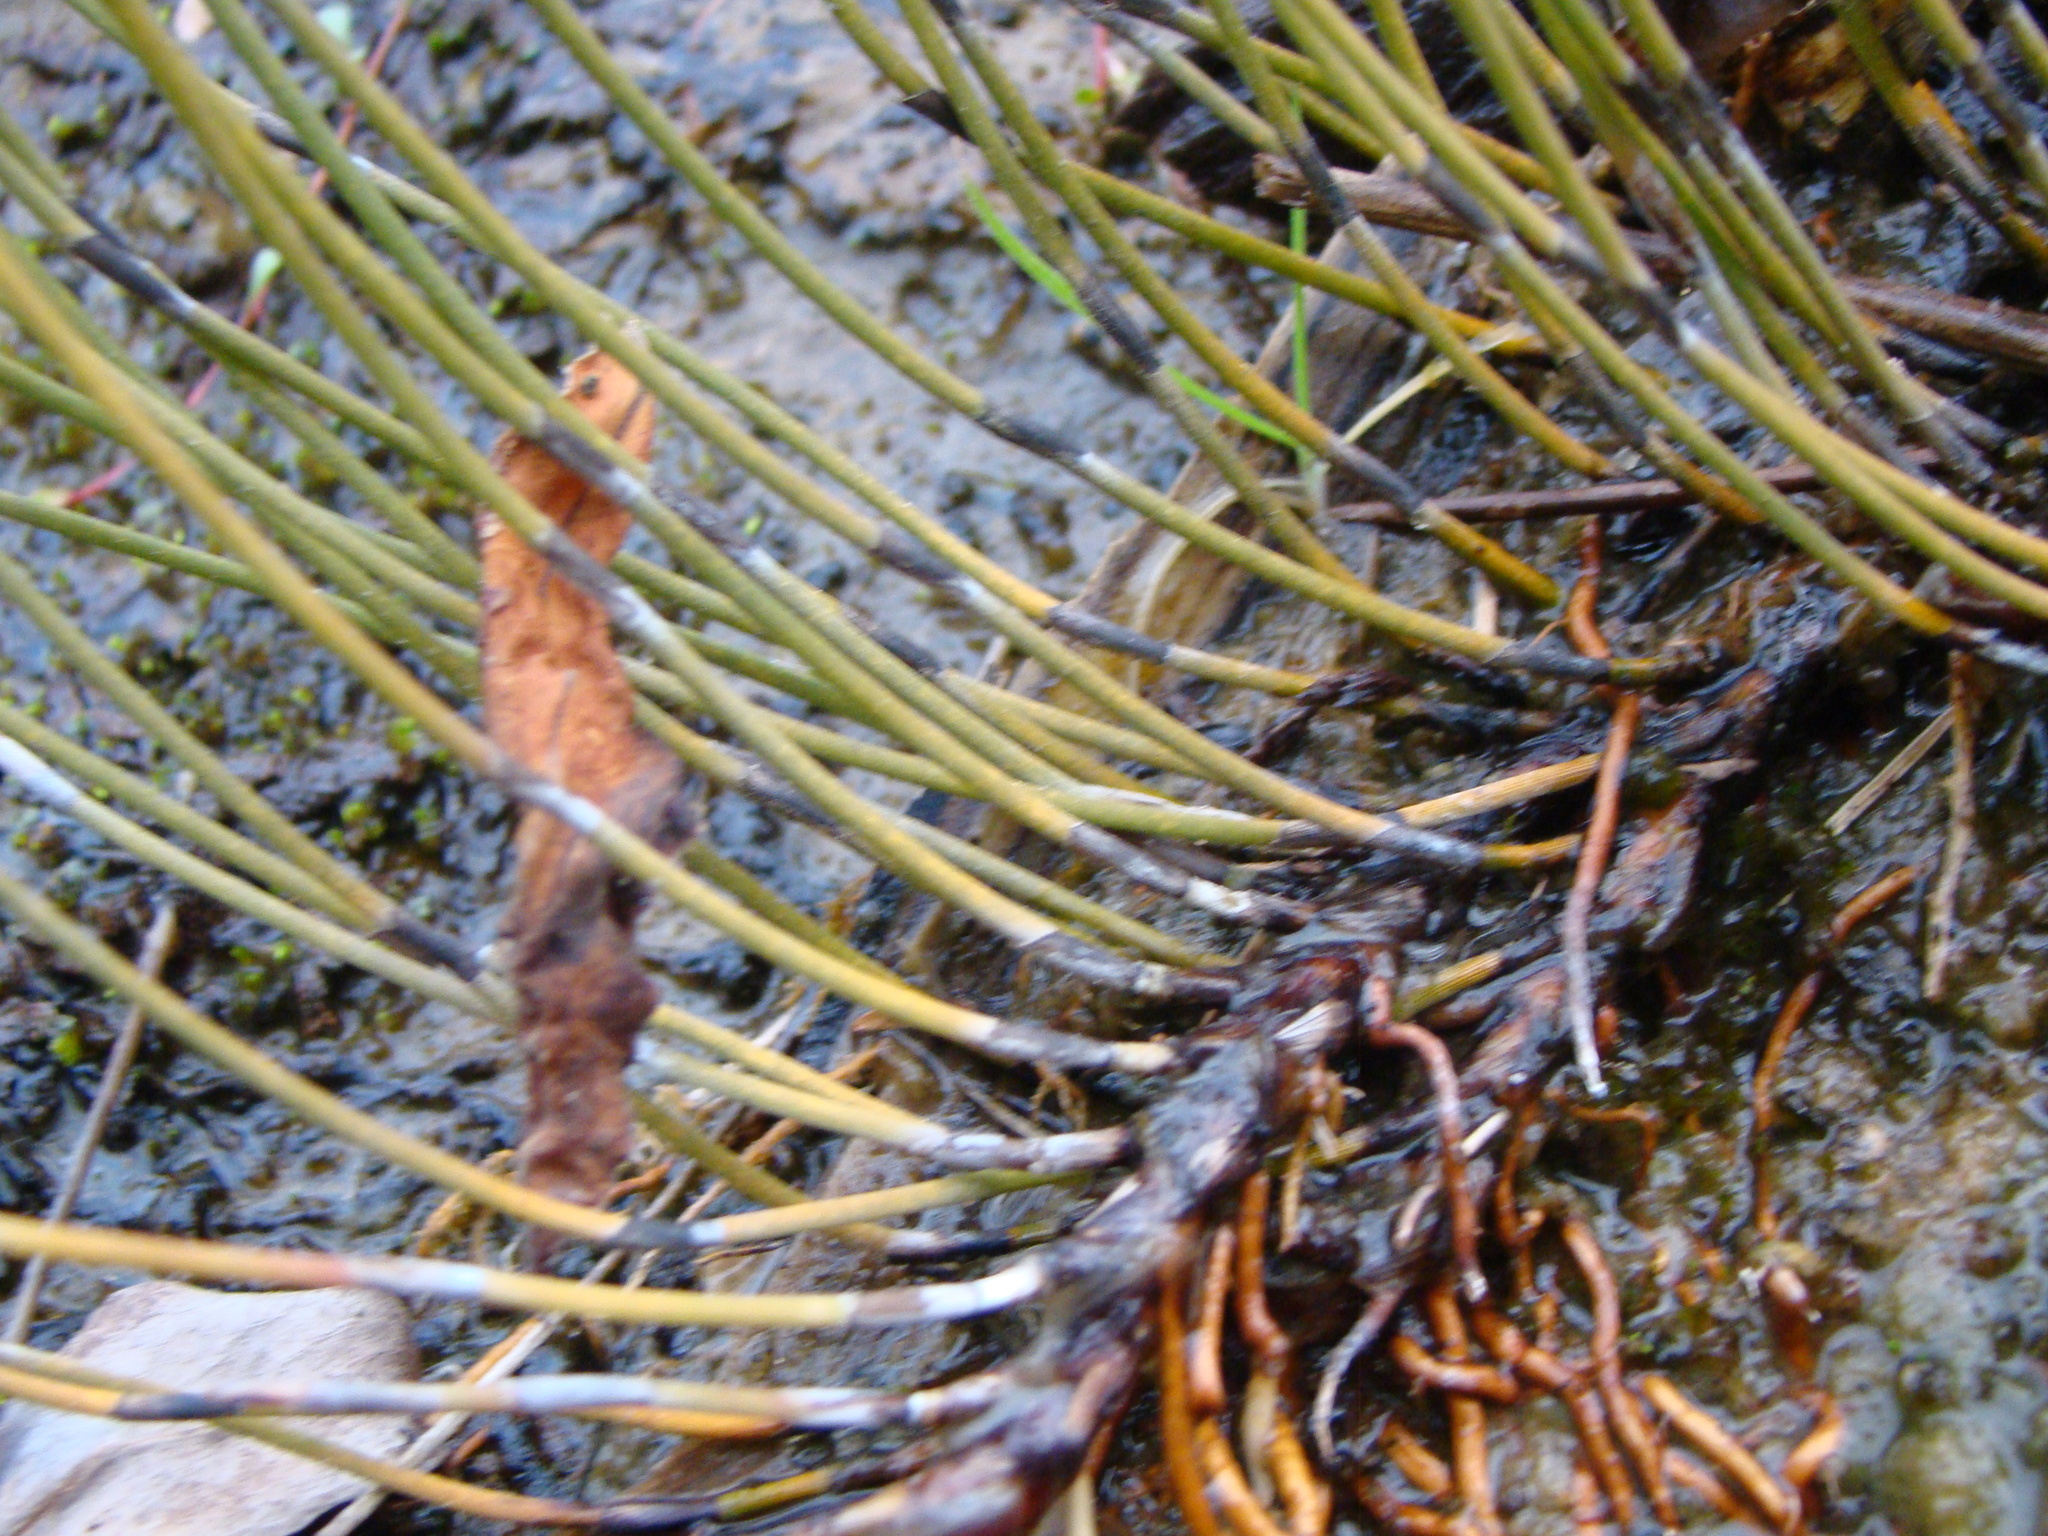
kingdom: Plantae
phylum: Tracheophyta
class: Liliopsida
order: Poales
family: Restionaceae
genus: Apodasmia
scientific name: Apodasmia similis
